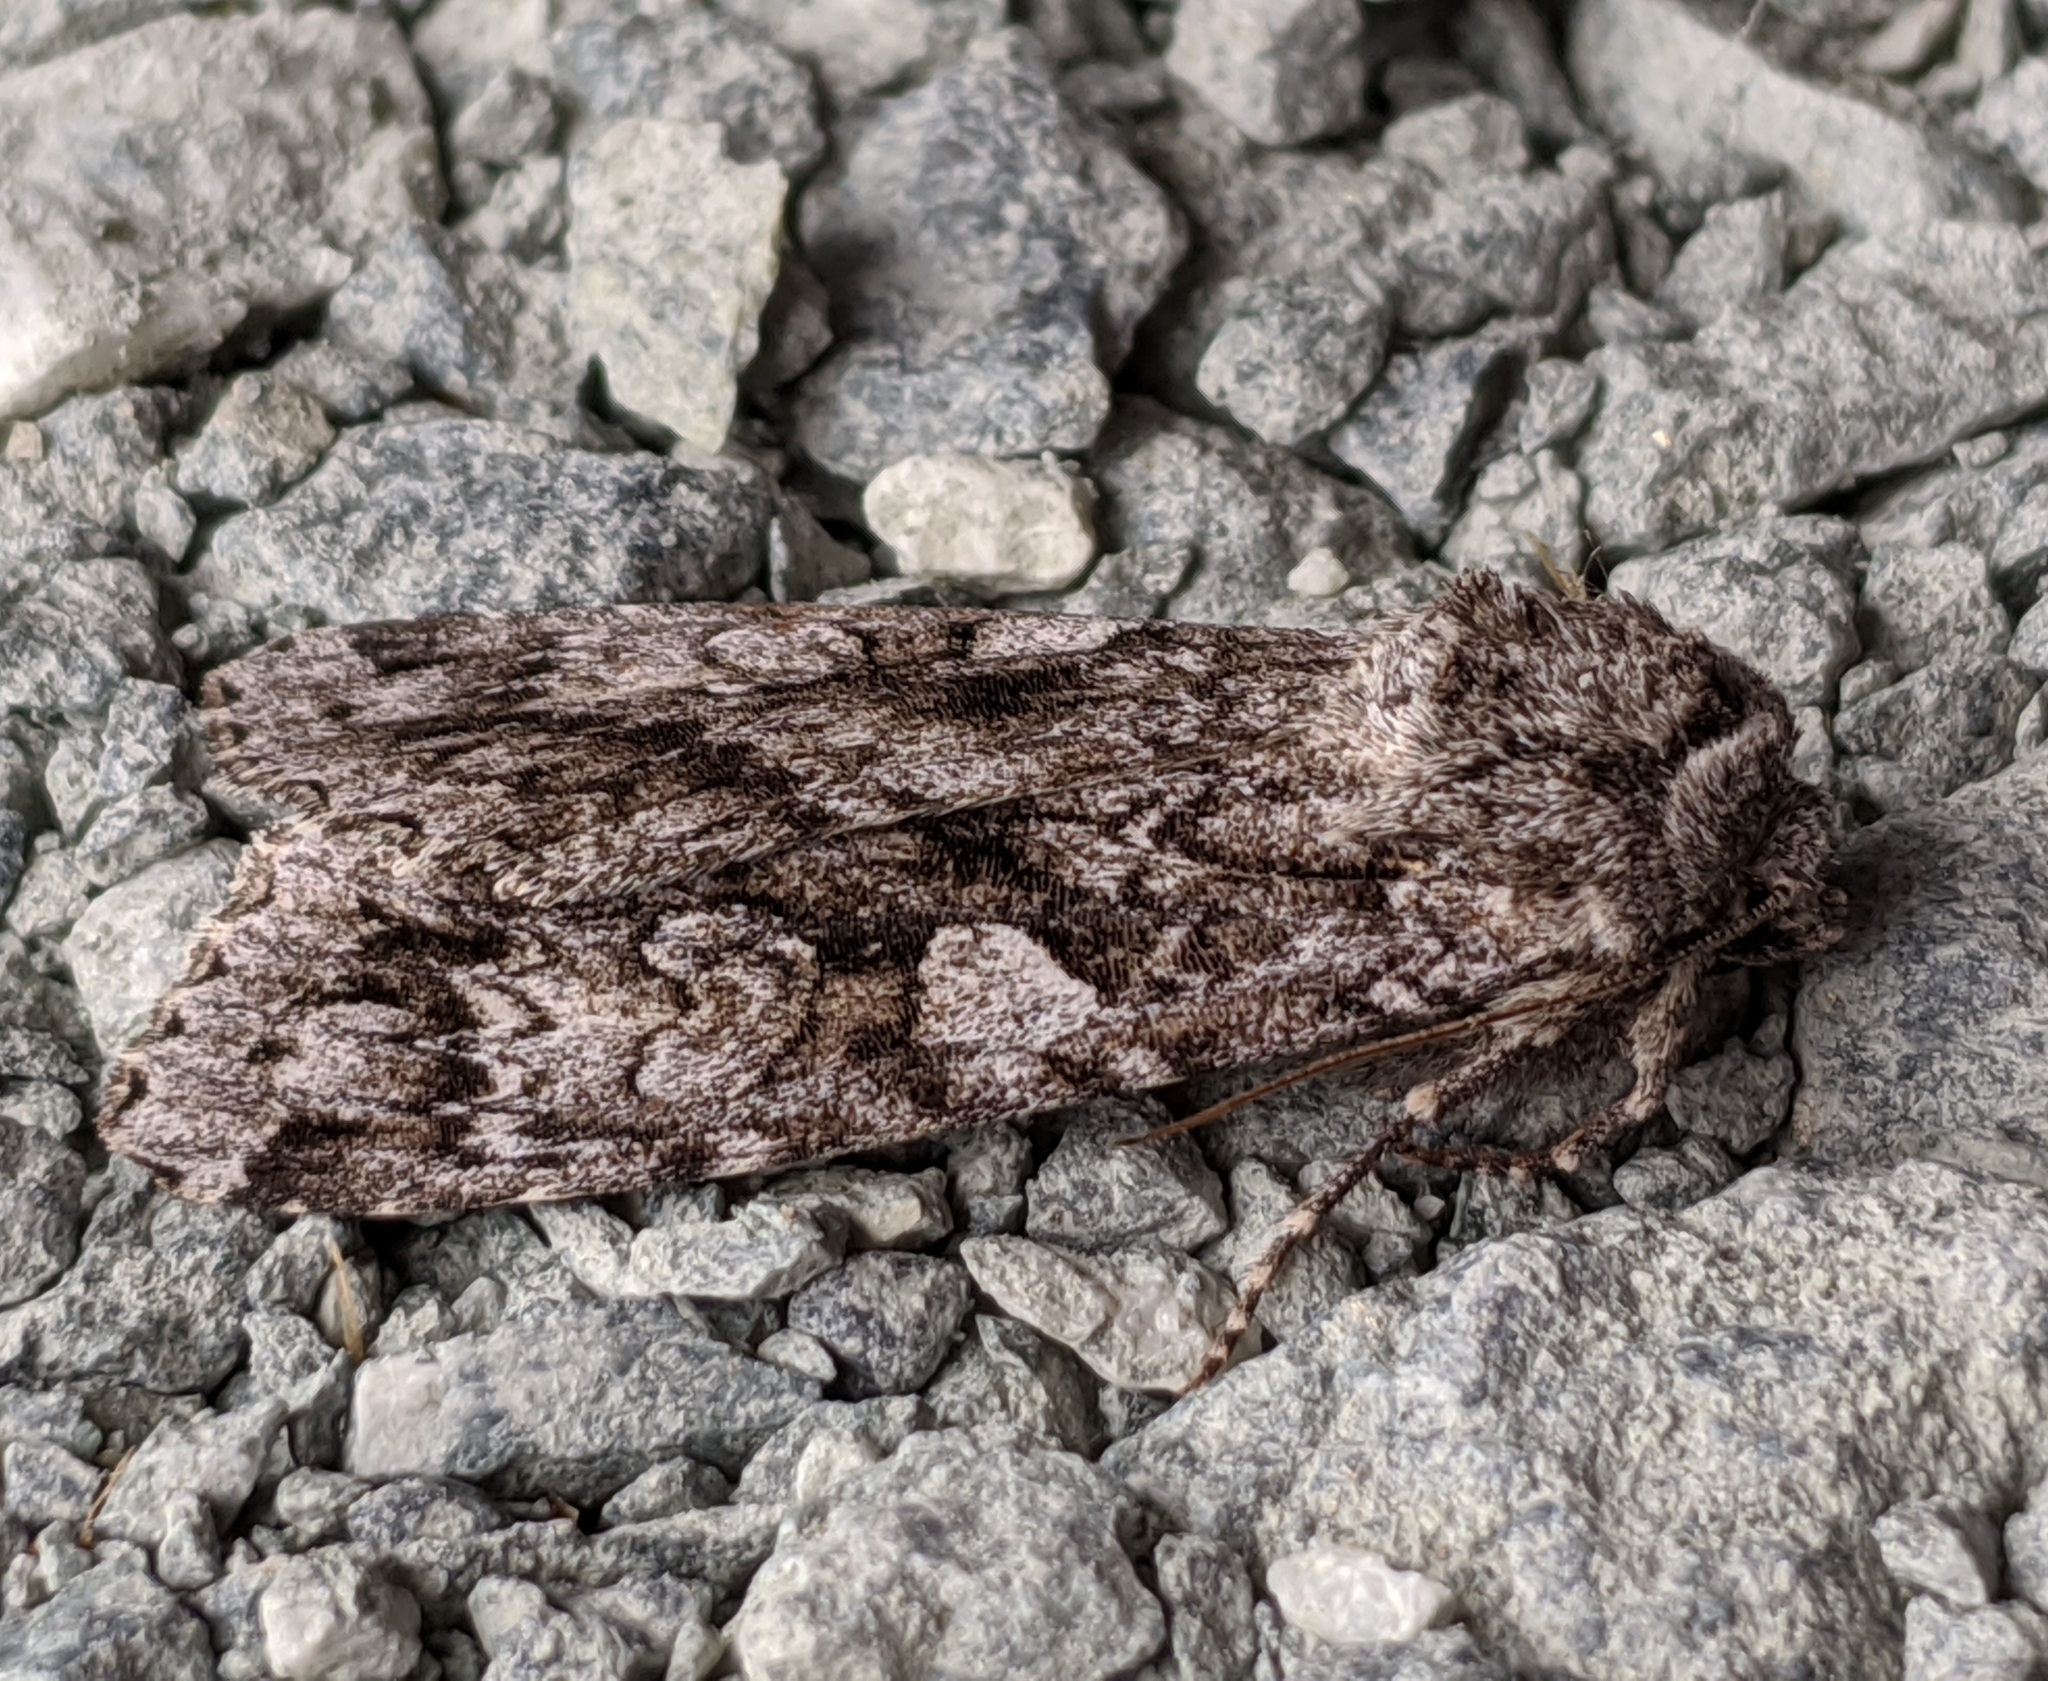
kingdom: Animalia
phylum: Arthropoda
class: Insecta
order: Lepidoptera
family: Noctuidae
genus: Eurois
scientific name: Eurois occulta
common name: Great brocade
